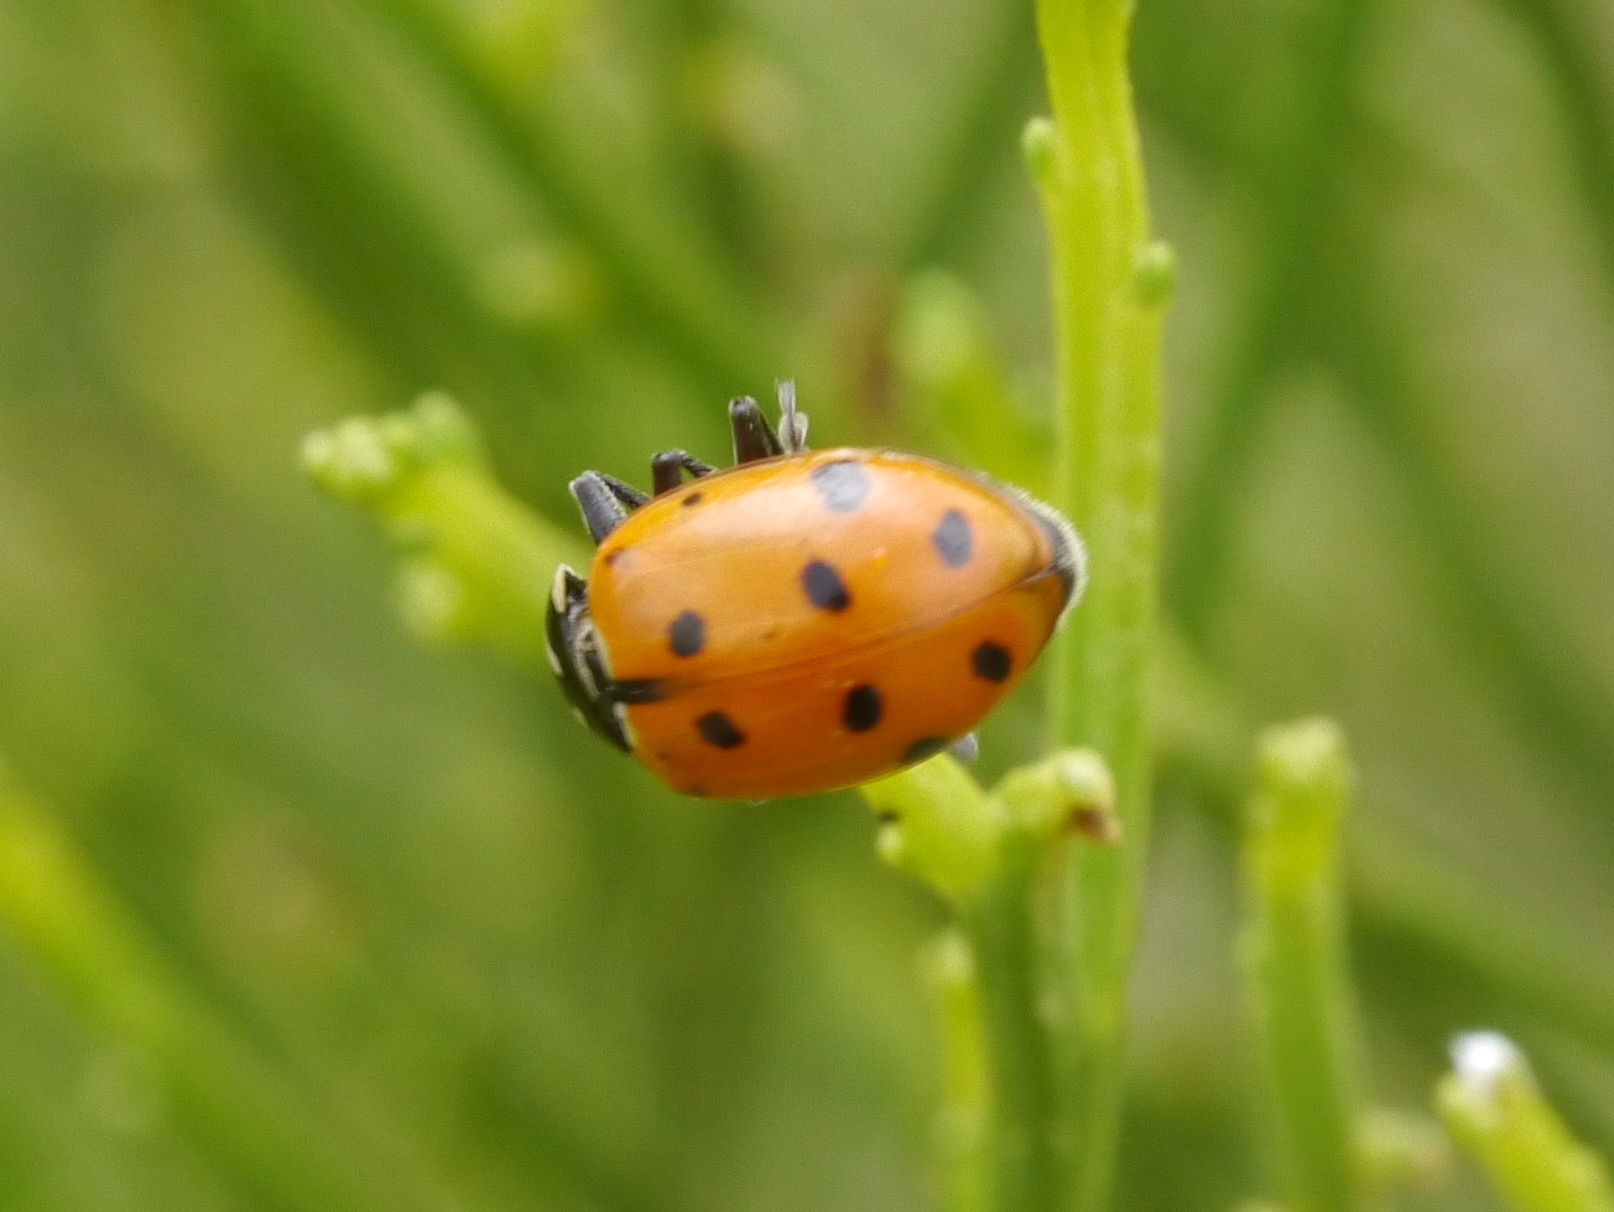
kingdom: Animalia
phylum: Arthropoda
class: Insecta
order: Coleoptera
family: Coccinellidae
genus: Hippodamia
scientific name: Hippodamia convergens
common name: Convergent lady beetle
